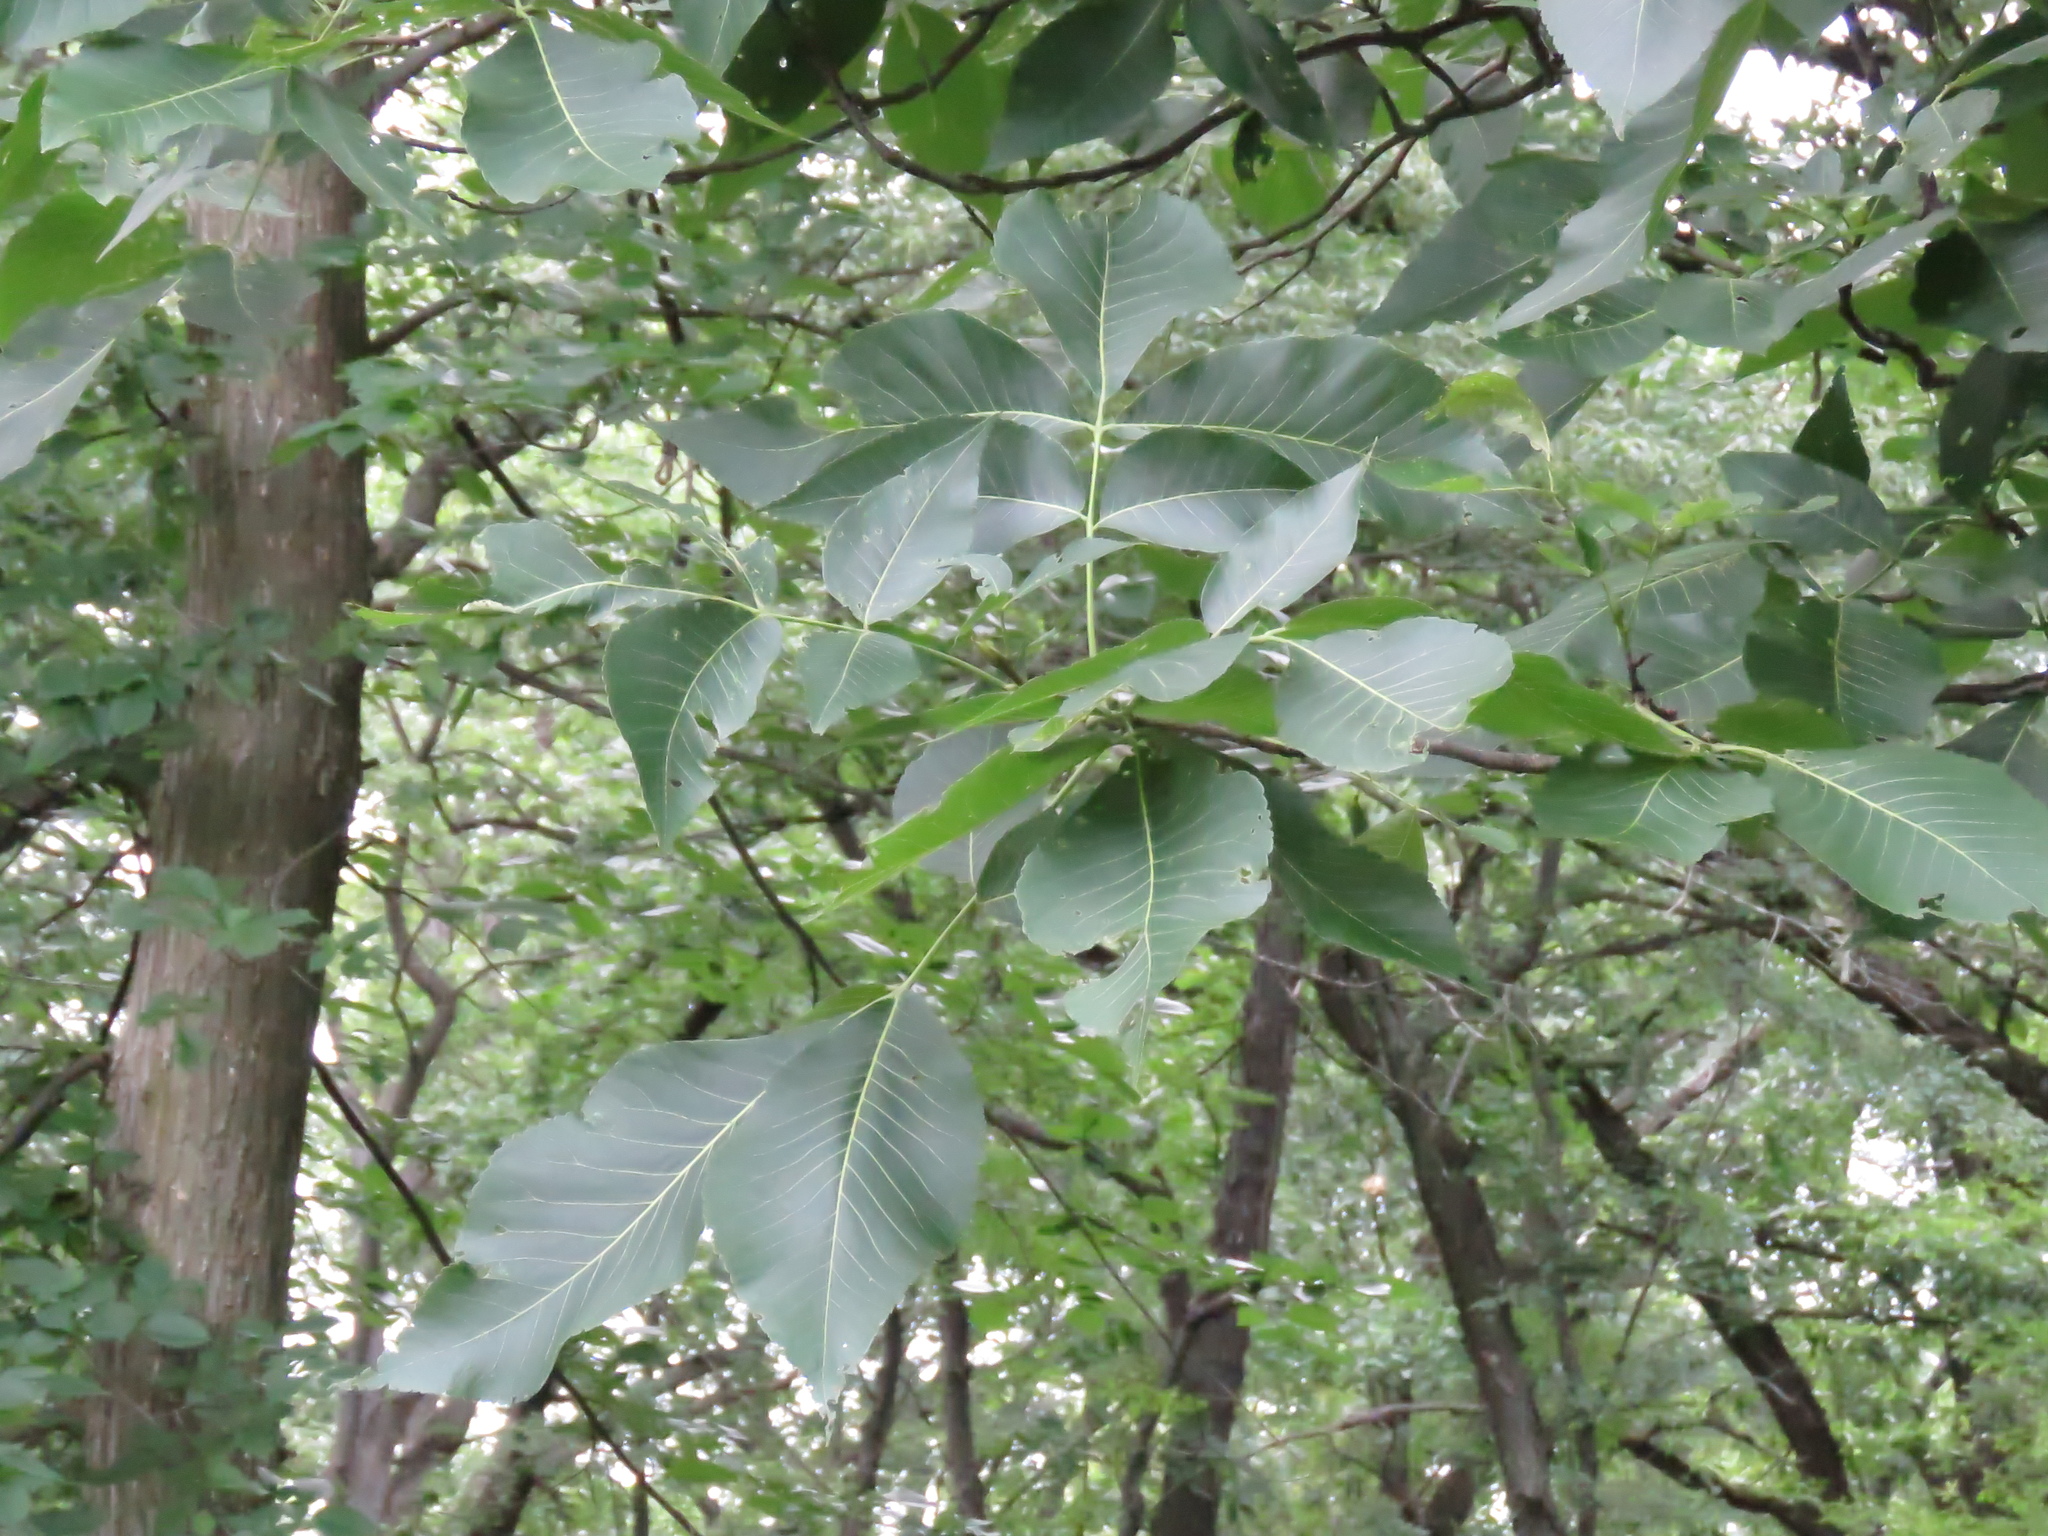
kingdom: Plantae
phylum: Tracheophyta
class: Magnoliopsida
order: Fagales
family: Juglandaceae
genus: Carya
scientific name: Carya ovata
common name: Shagbark hickory
